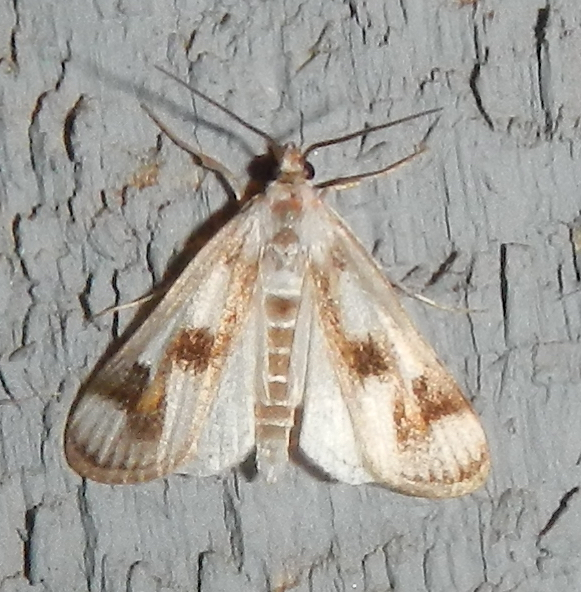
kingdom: Animalia
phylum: Arthropoda
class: Insecta
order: Lepidoptera
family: Crambidae
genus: Parapoynx
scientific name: Parapoynx maculalis
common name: Polymorphic pondweed moth
